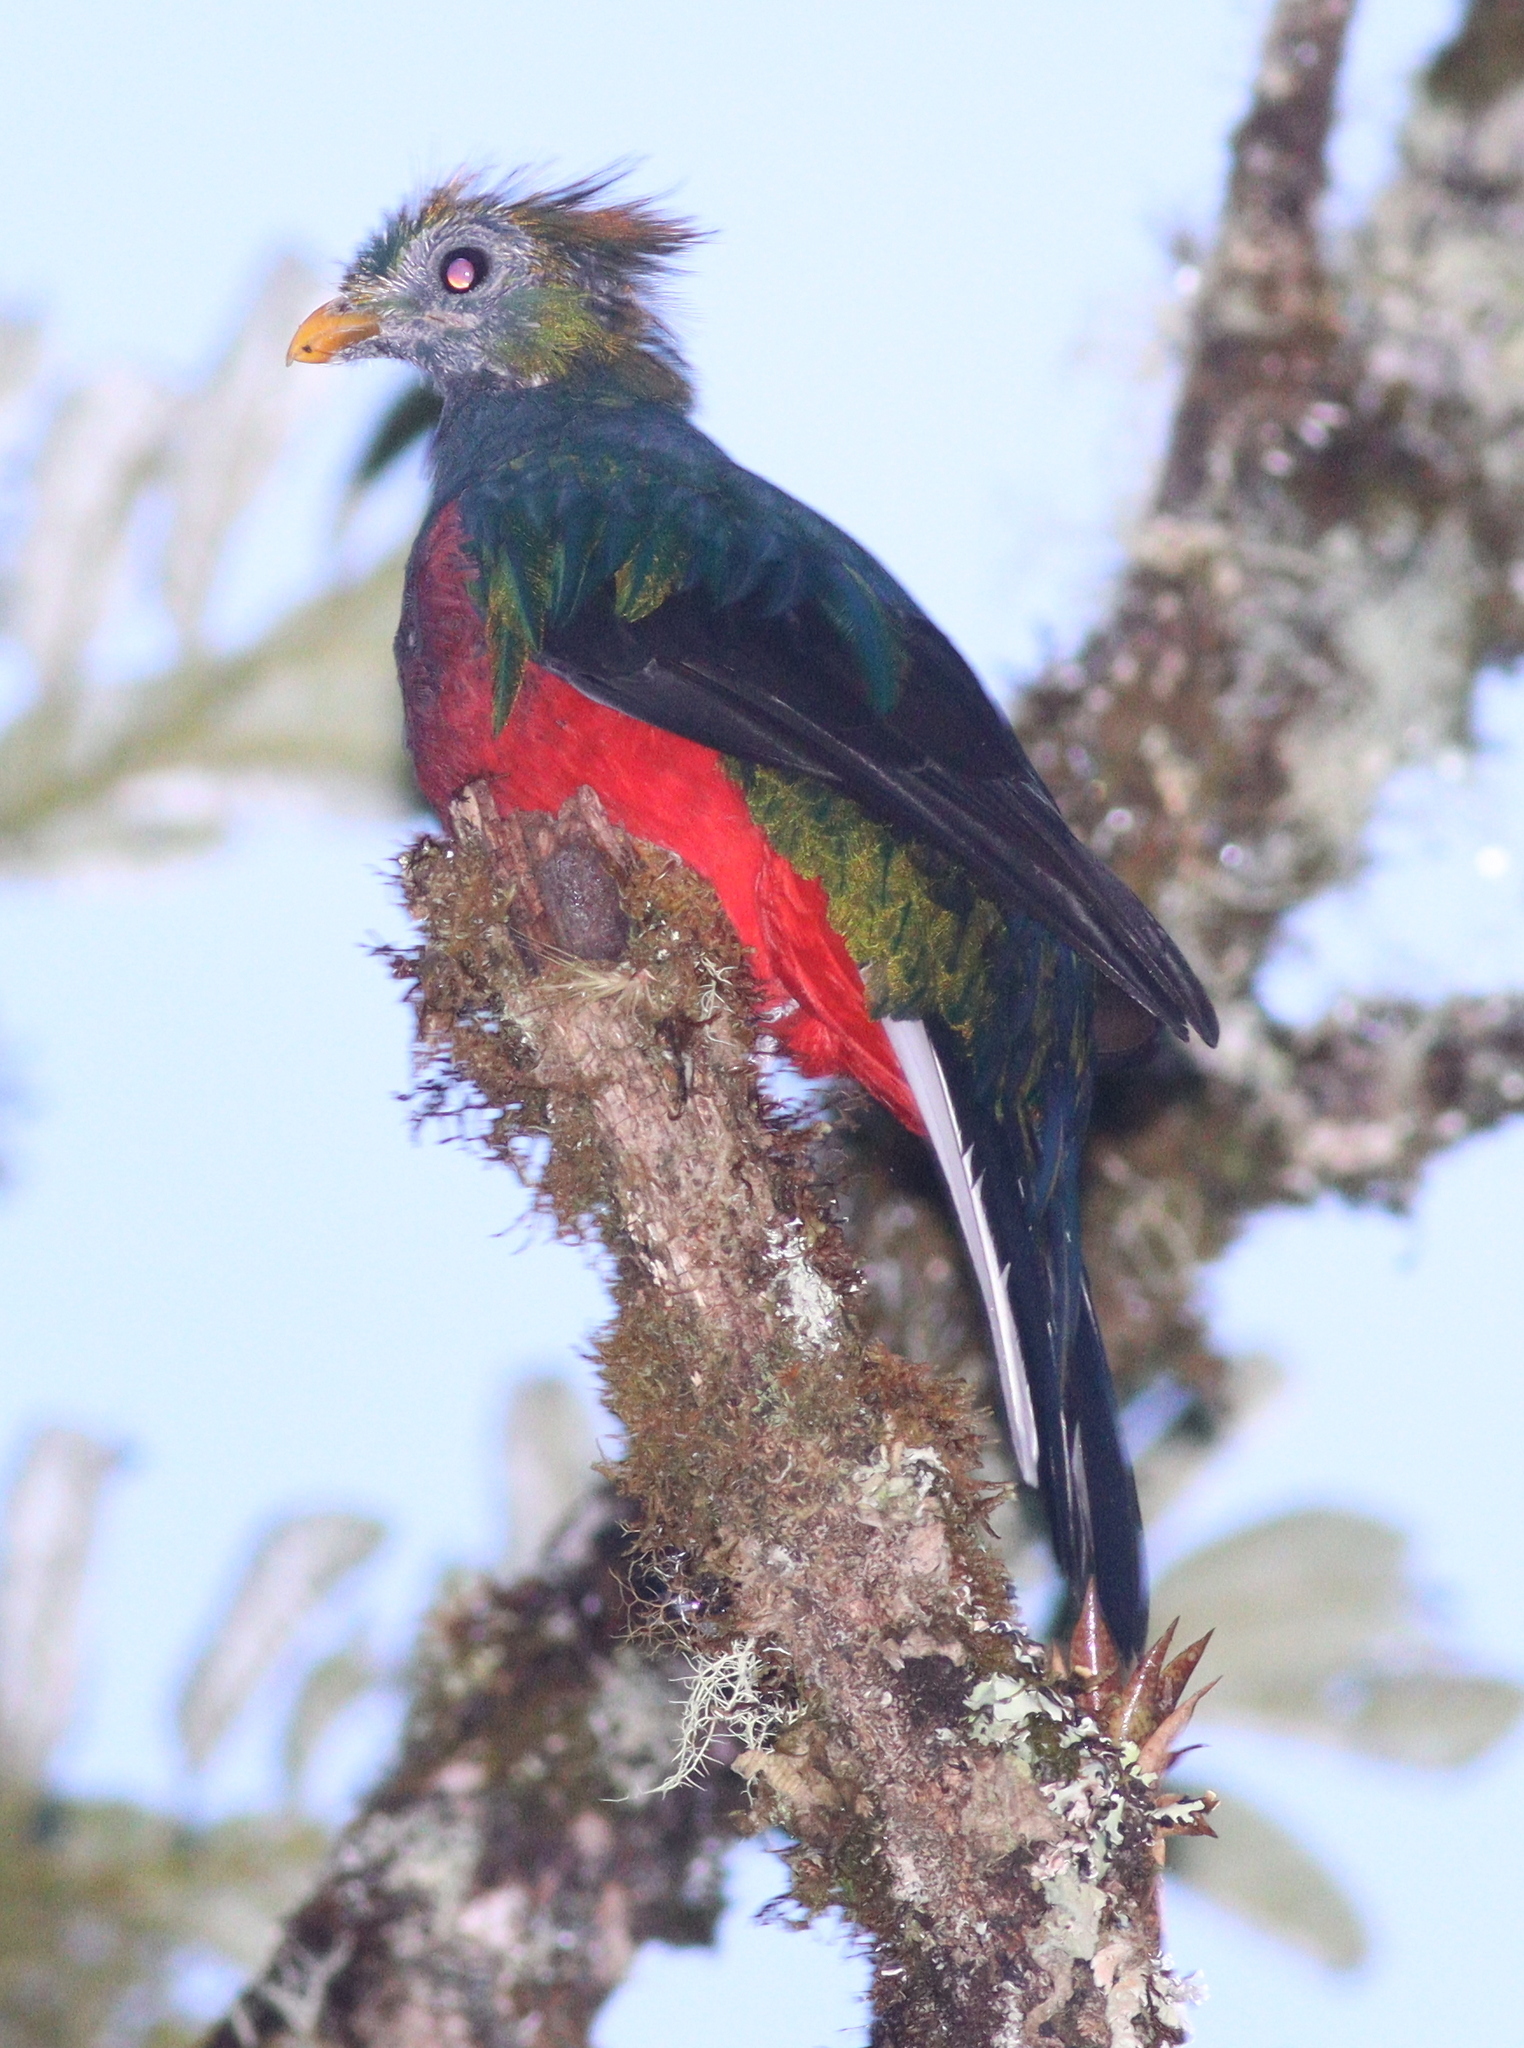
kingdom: Animalia
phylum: Chordata
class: Aves
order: Trogoniformes
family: Trogonidae
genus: Pharomachrus
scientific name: Pharomachrus mocinno
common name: Resplendent quetzal
